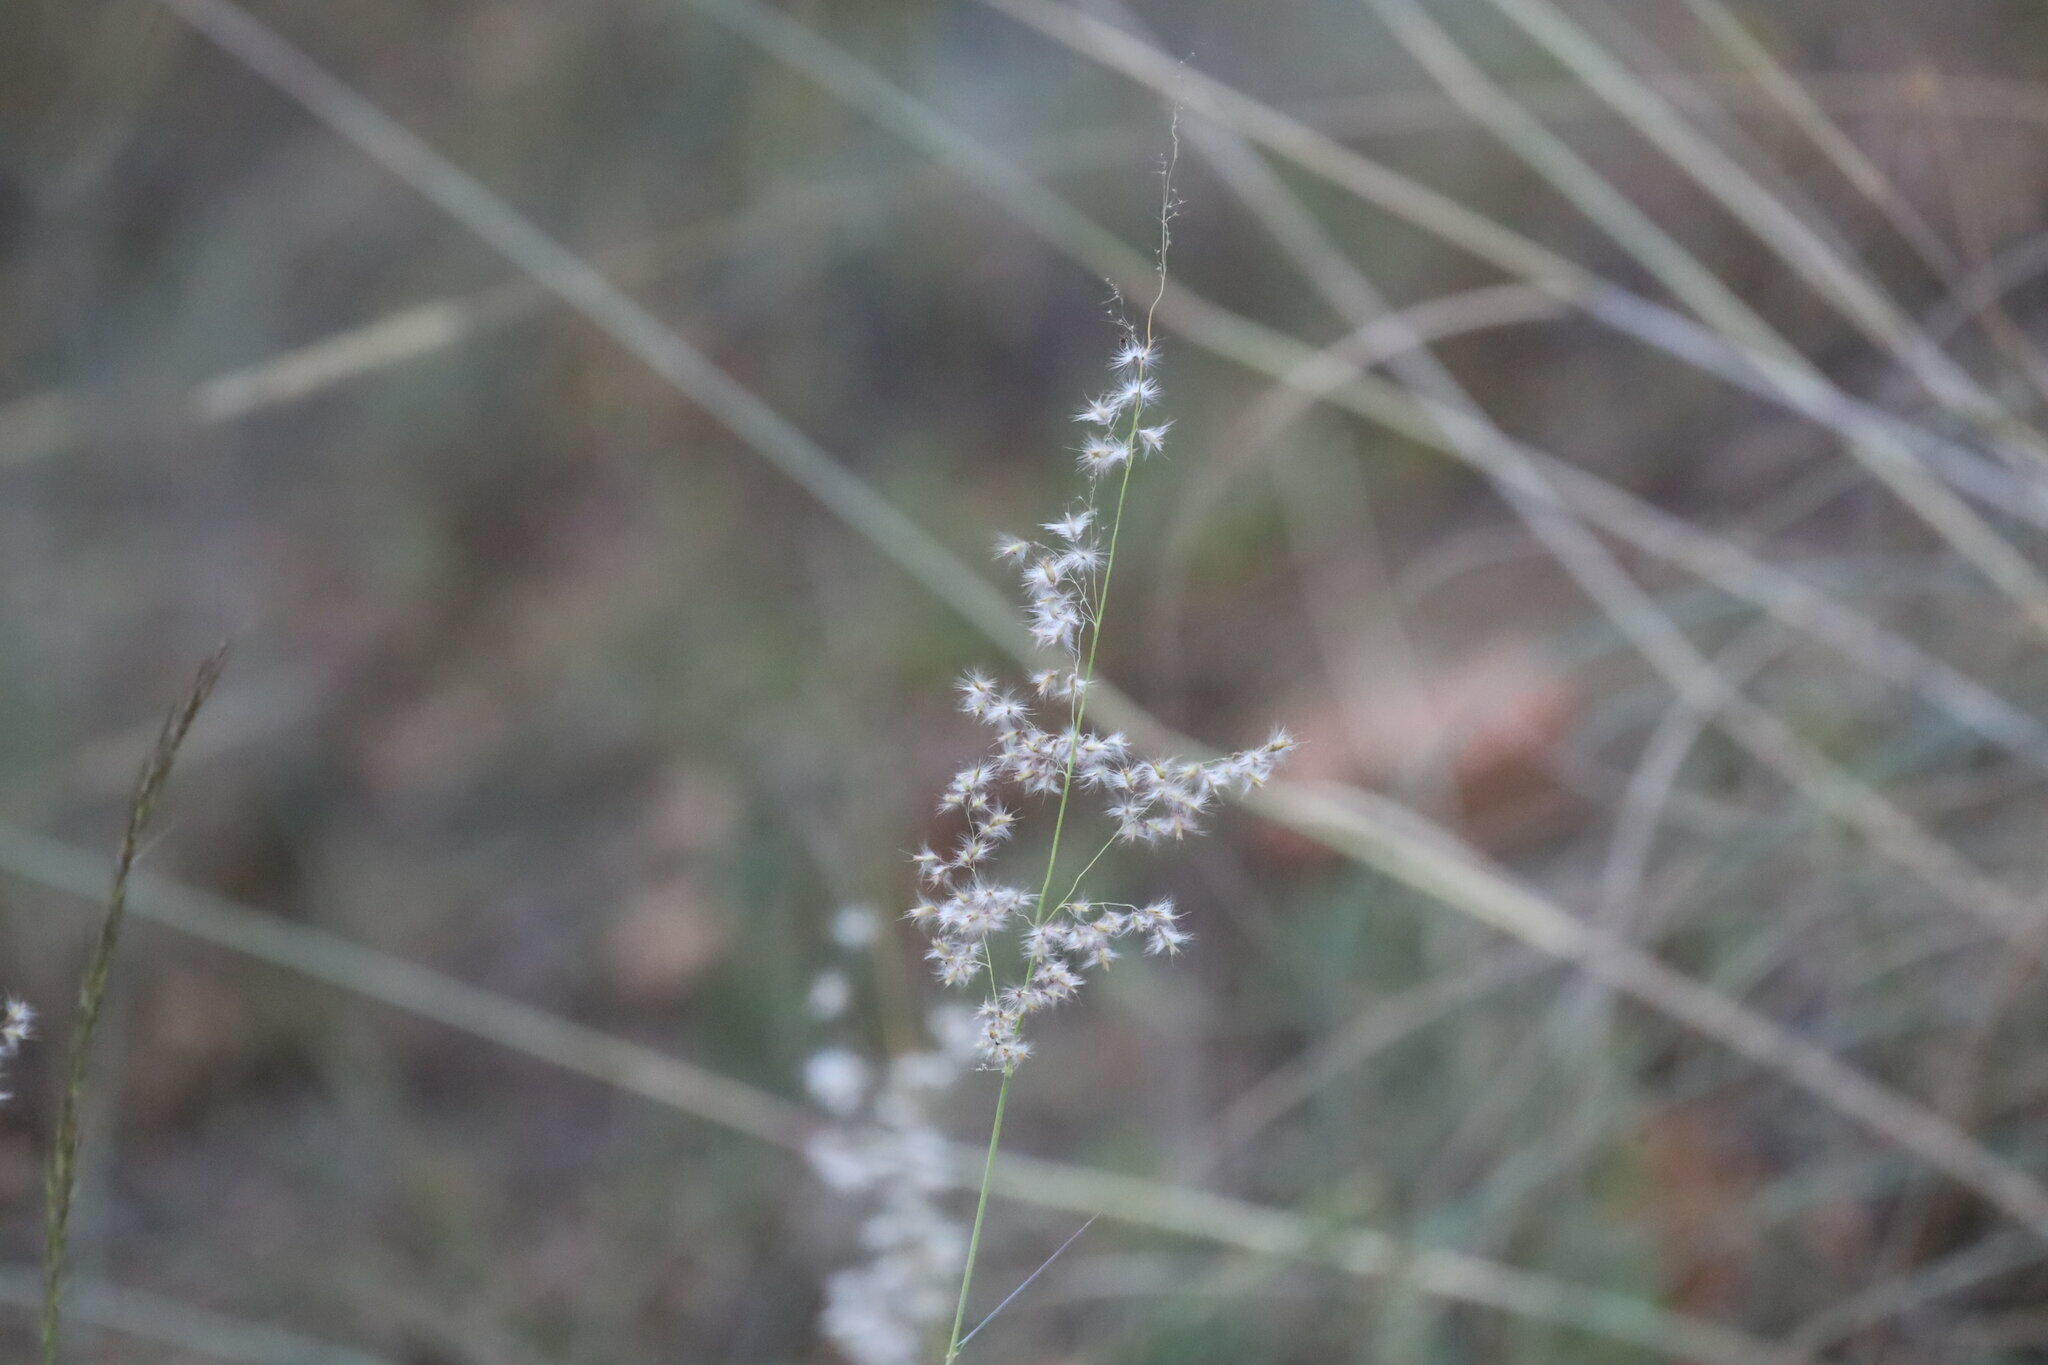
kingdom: Plantae
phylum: Tracheophyta
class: Liliopsida
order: Poales
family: Poaceae
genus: Melinis
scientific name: Melinis repens
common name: Rose natal grass
